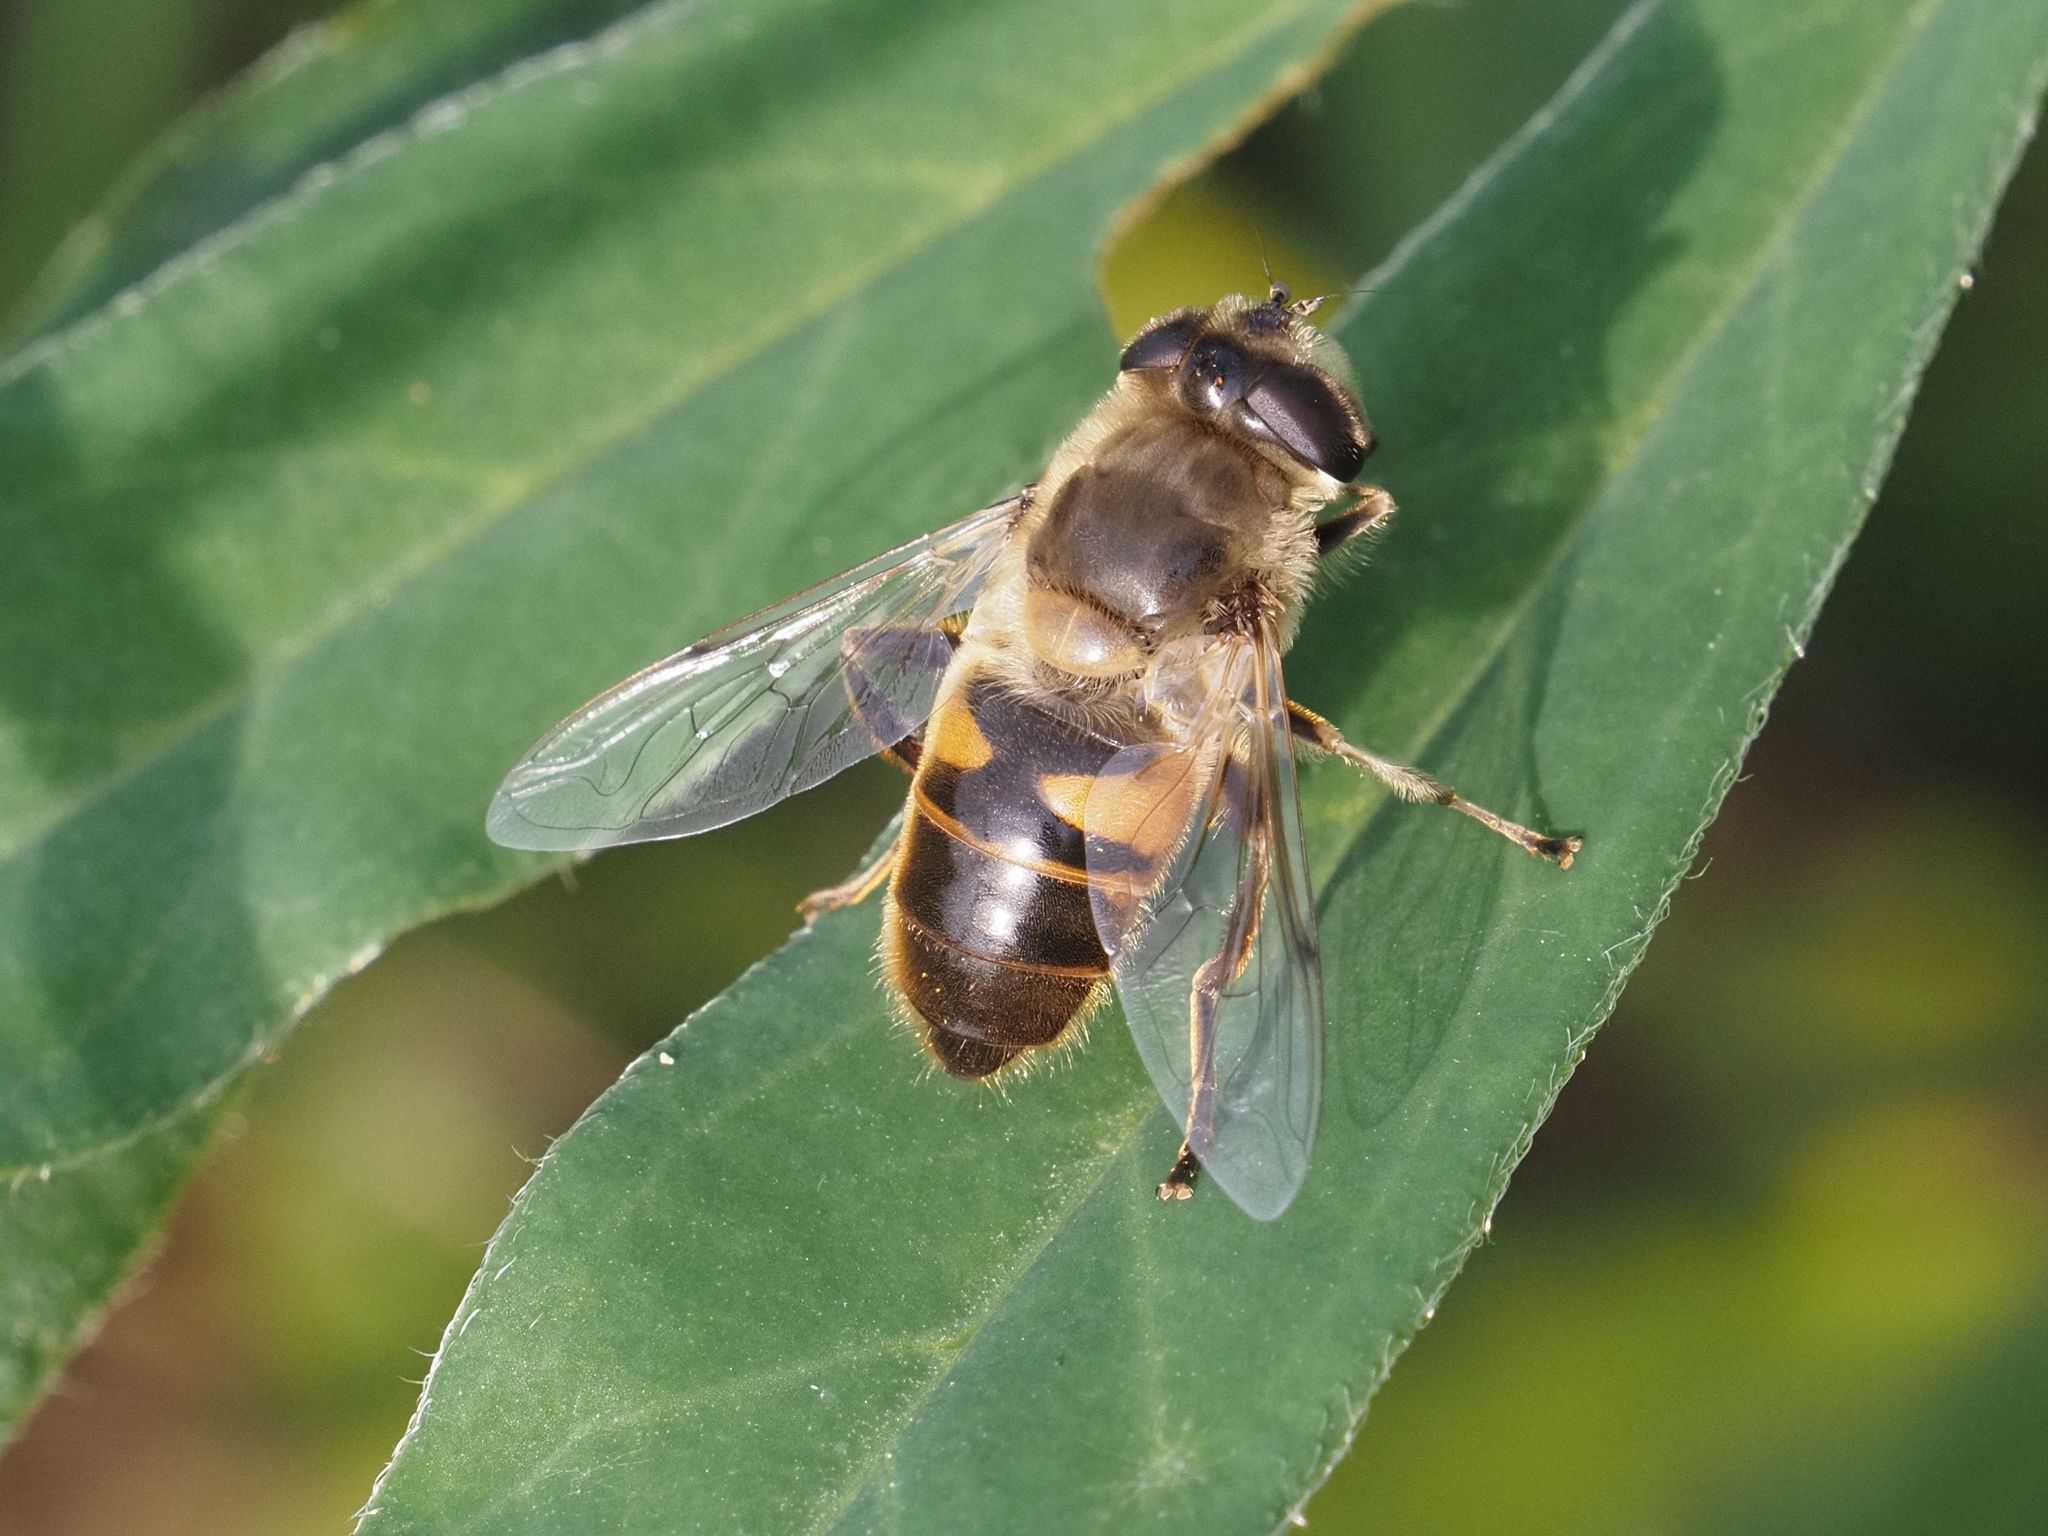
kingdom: Animalia
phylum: Arthropoda
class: Insecta
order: Diptera
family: Syrphidae
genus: Eristalis
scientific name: Eristalis tenax
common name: Drone fly
